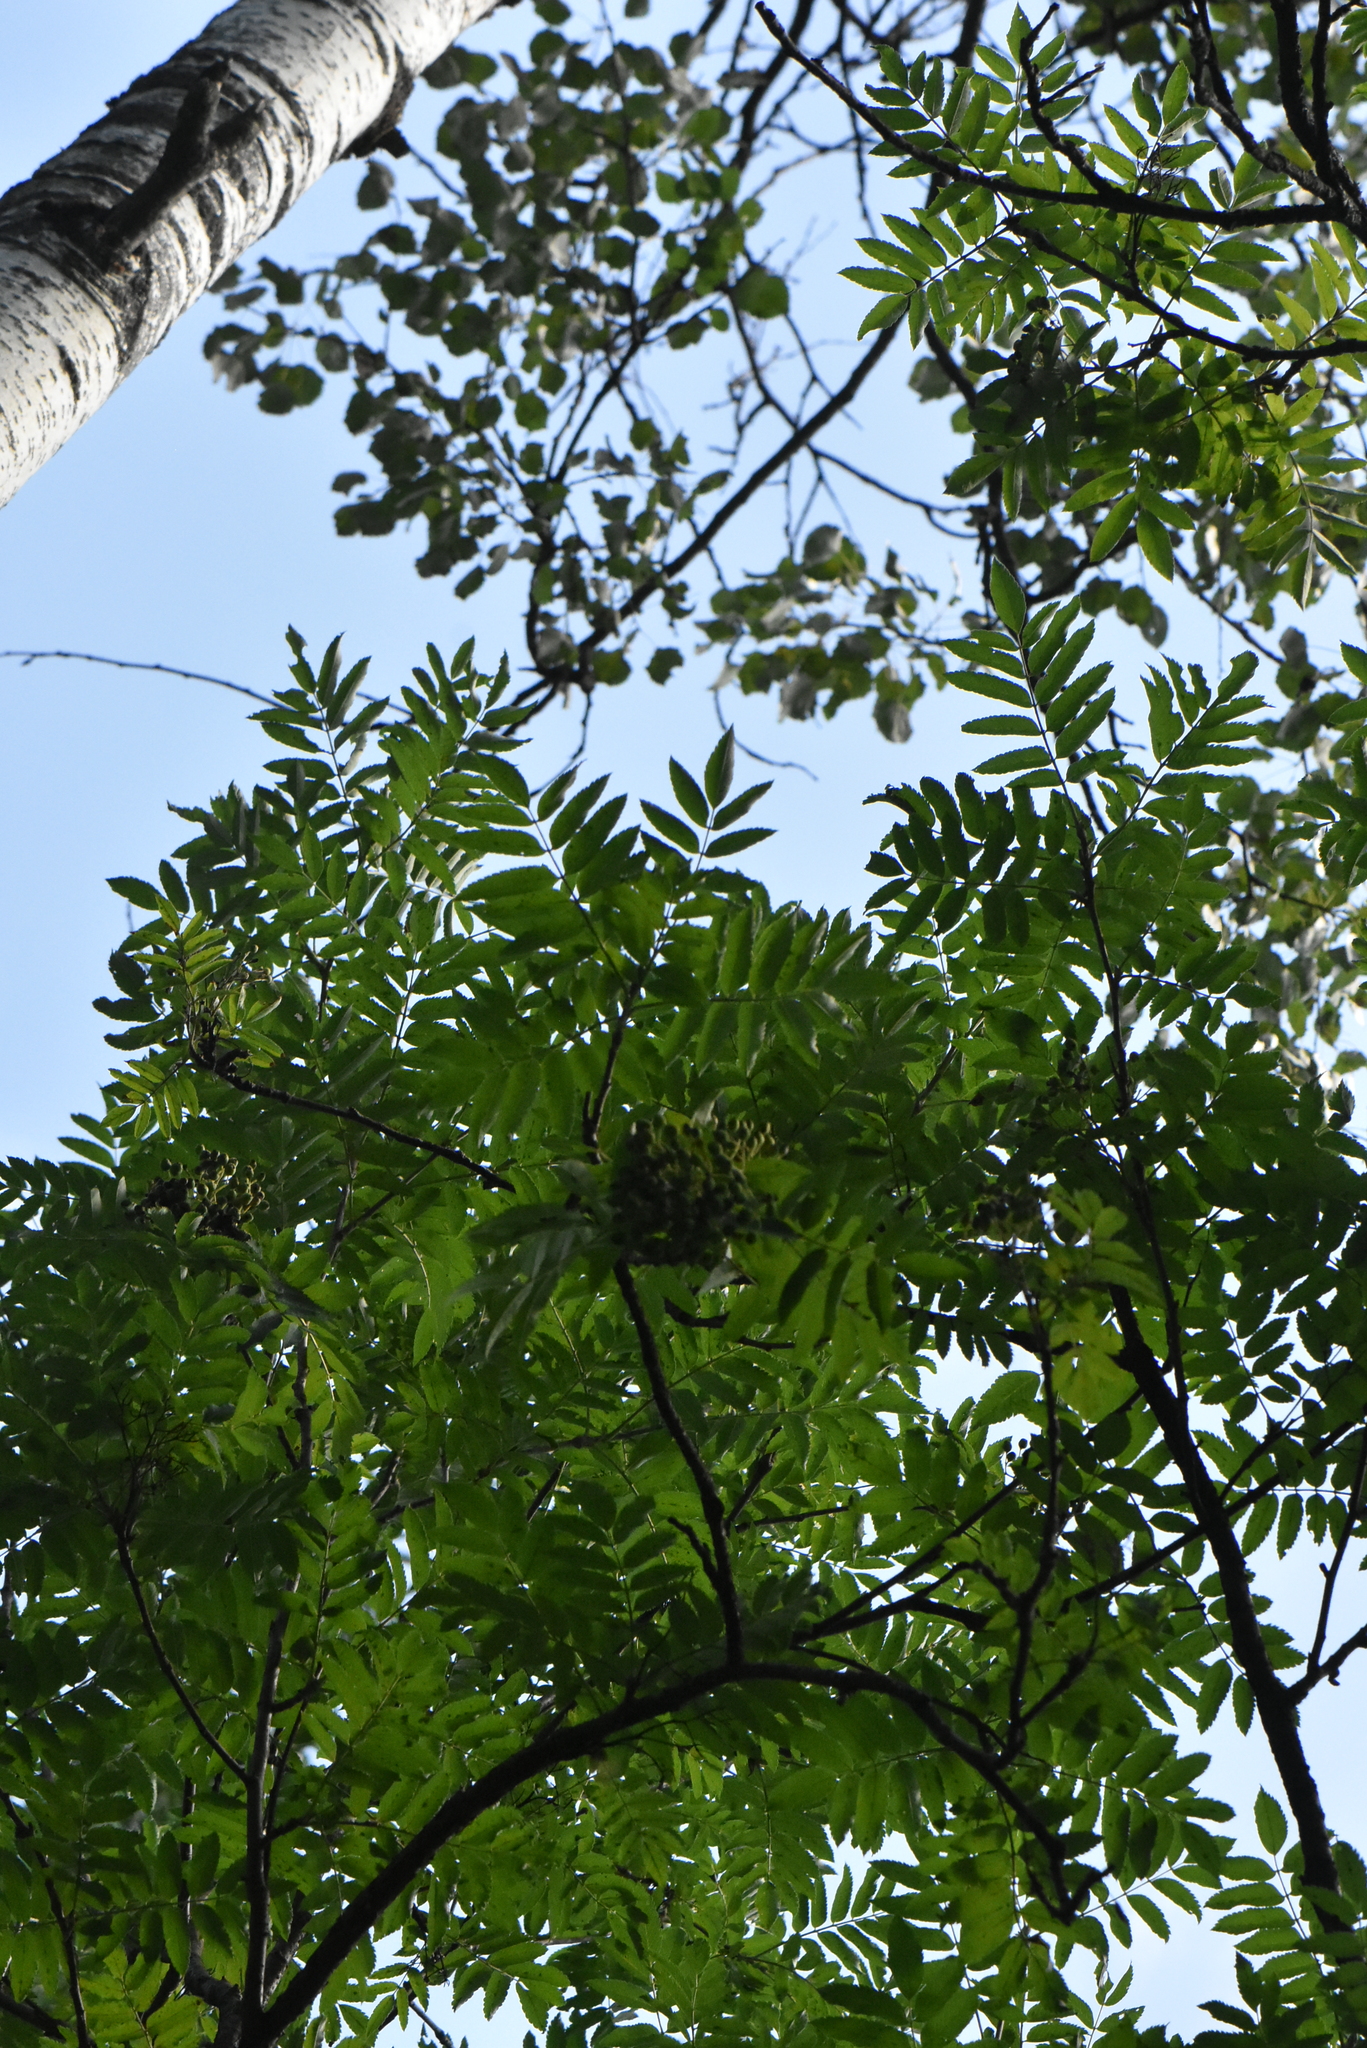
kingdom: Plantae
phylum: Tracheophyta
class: Magnoliopsida
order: Rosales
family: Rosaceae
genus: Sorbus
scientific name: Sorbus aucuparia
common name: Rowan
